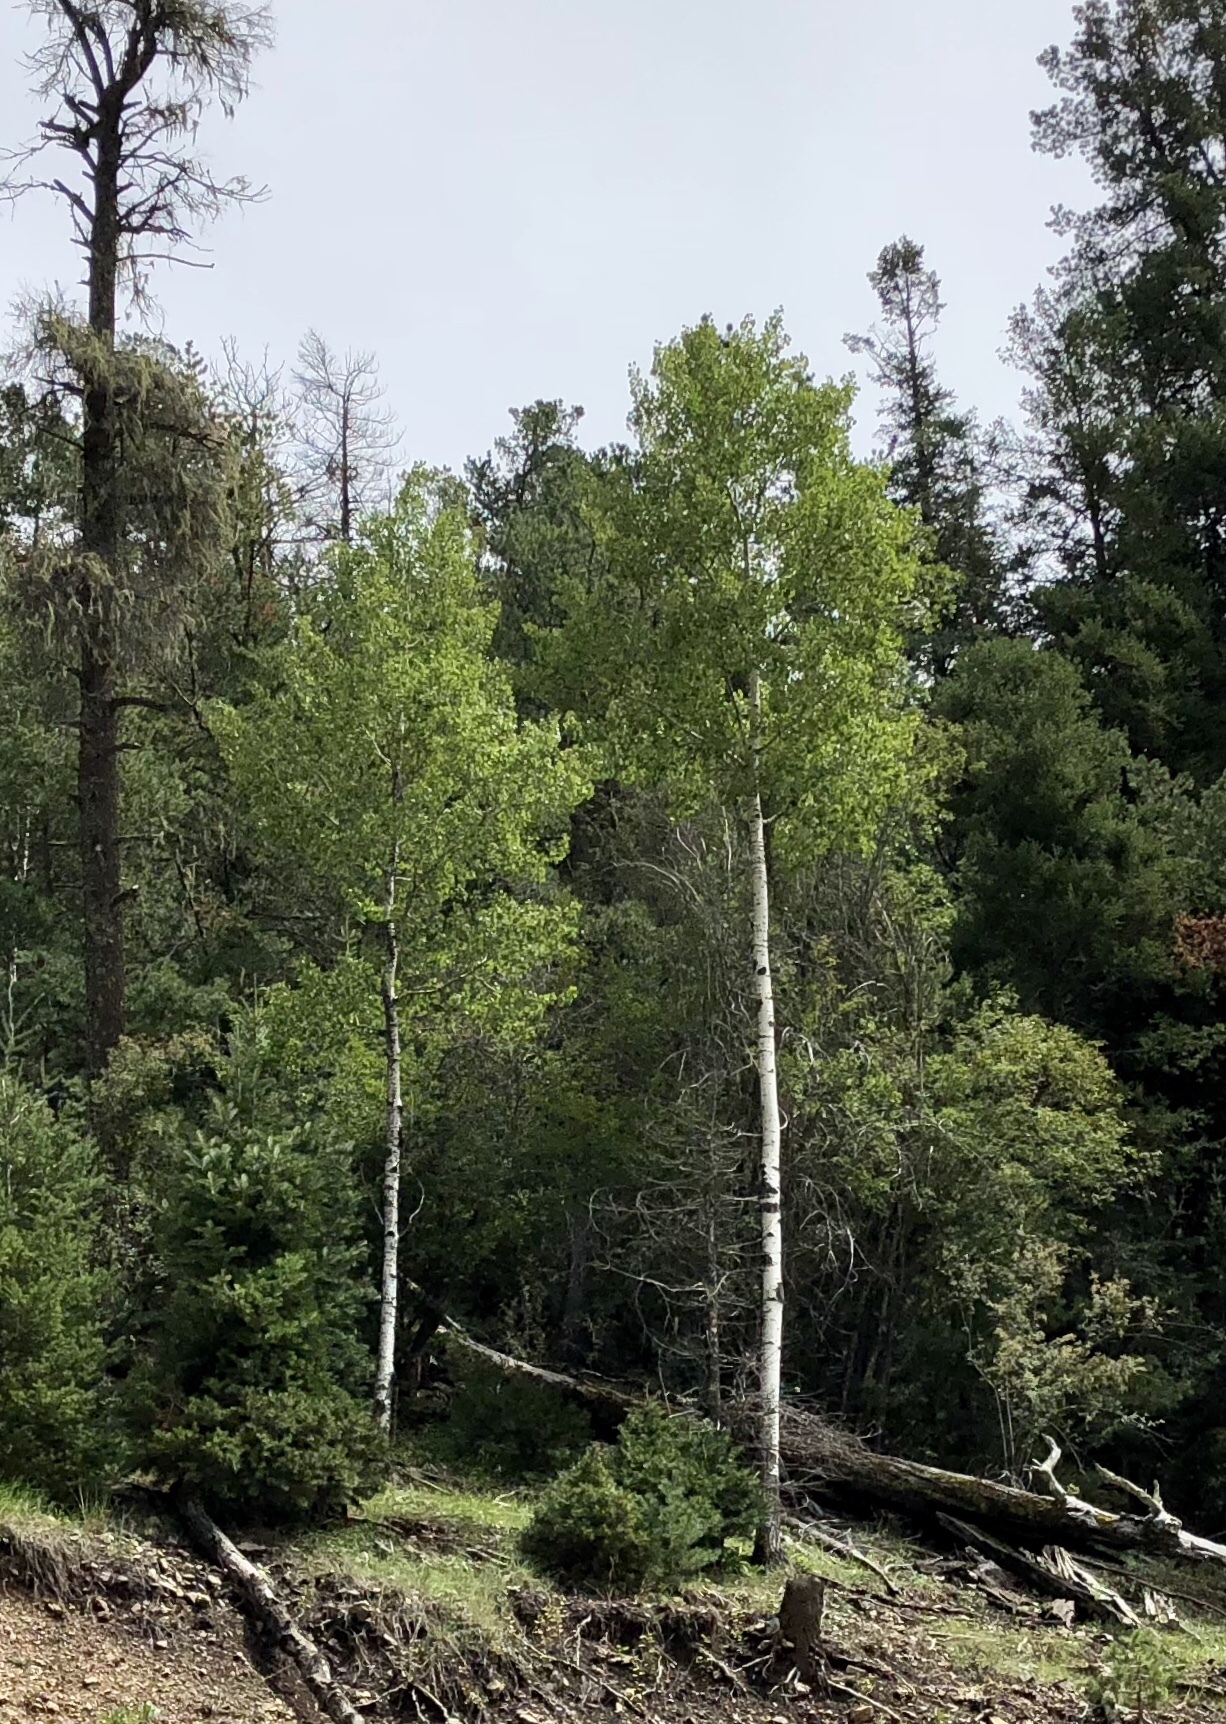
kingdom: Plantae
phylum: Tracheophyta
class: Magnoliopsida
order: Malpighiales
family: Salicaceae
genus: Populus
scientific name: Populus tremuloides
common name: Quaking aspen
